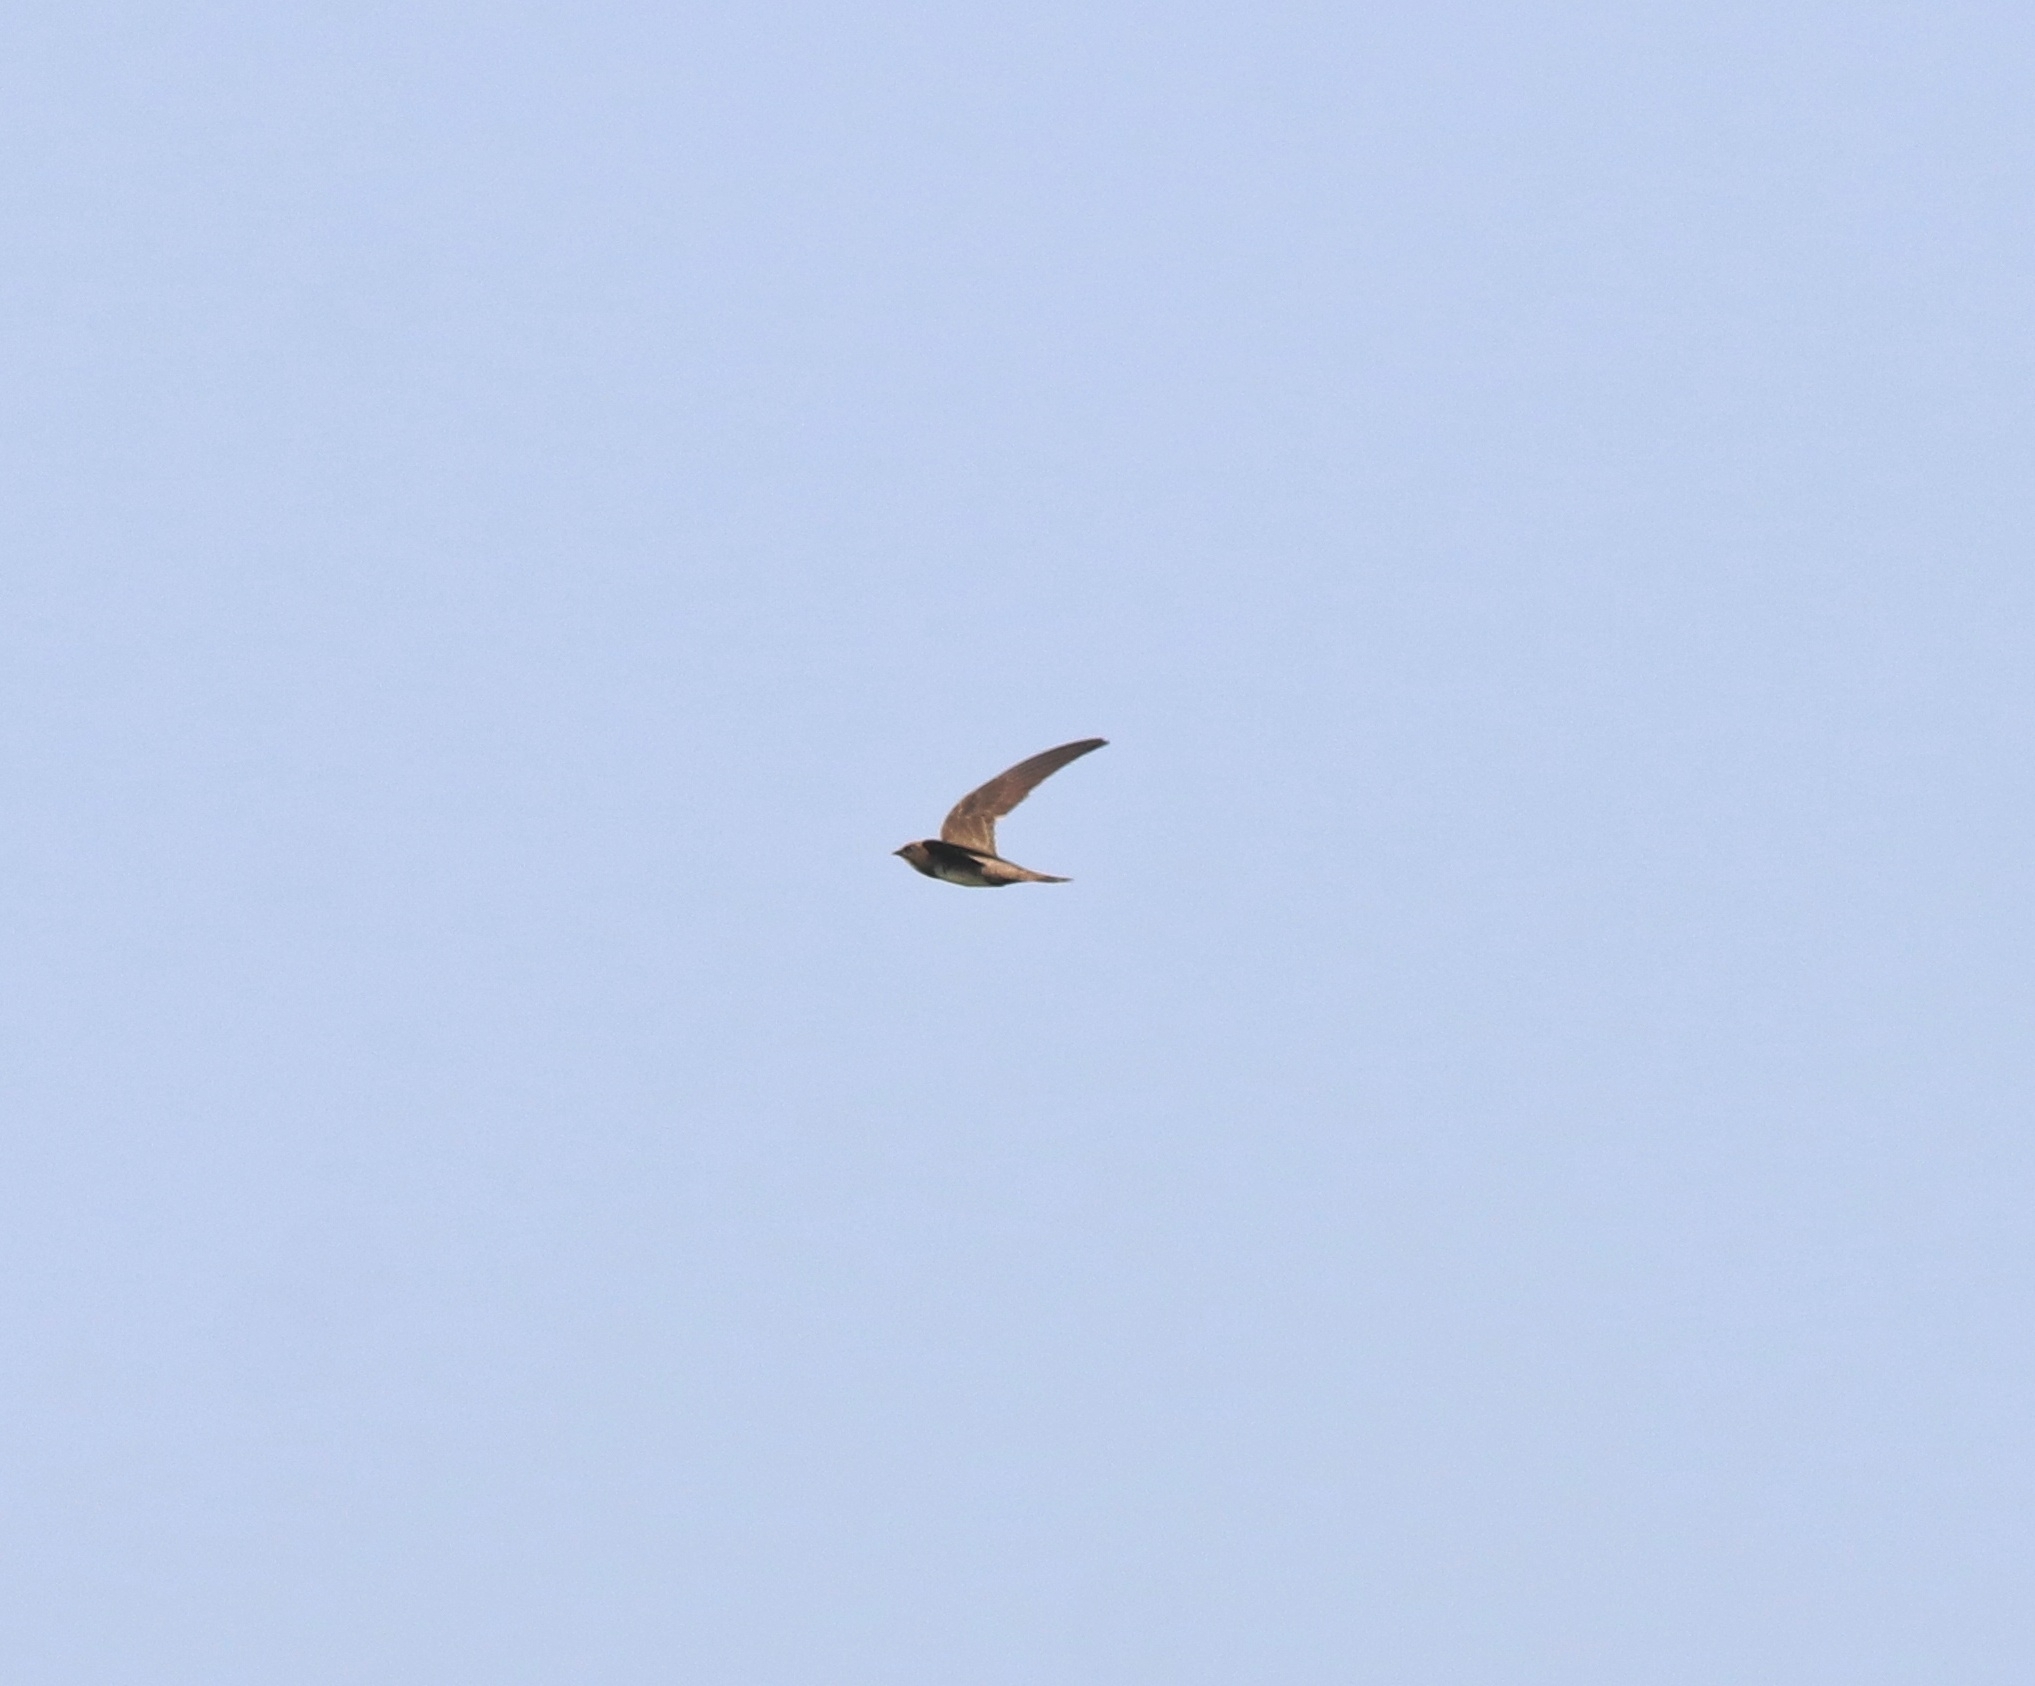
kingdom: Animalia
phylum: Chordata
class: Aves
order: Apodiformes
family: Apodidae
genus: Tachymarptis
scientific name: Tachymarptis melba
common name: Alpine swift
